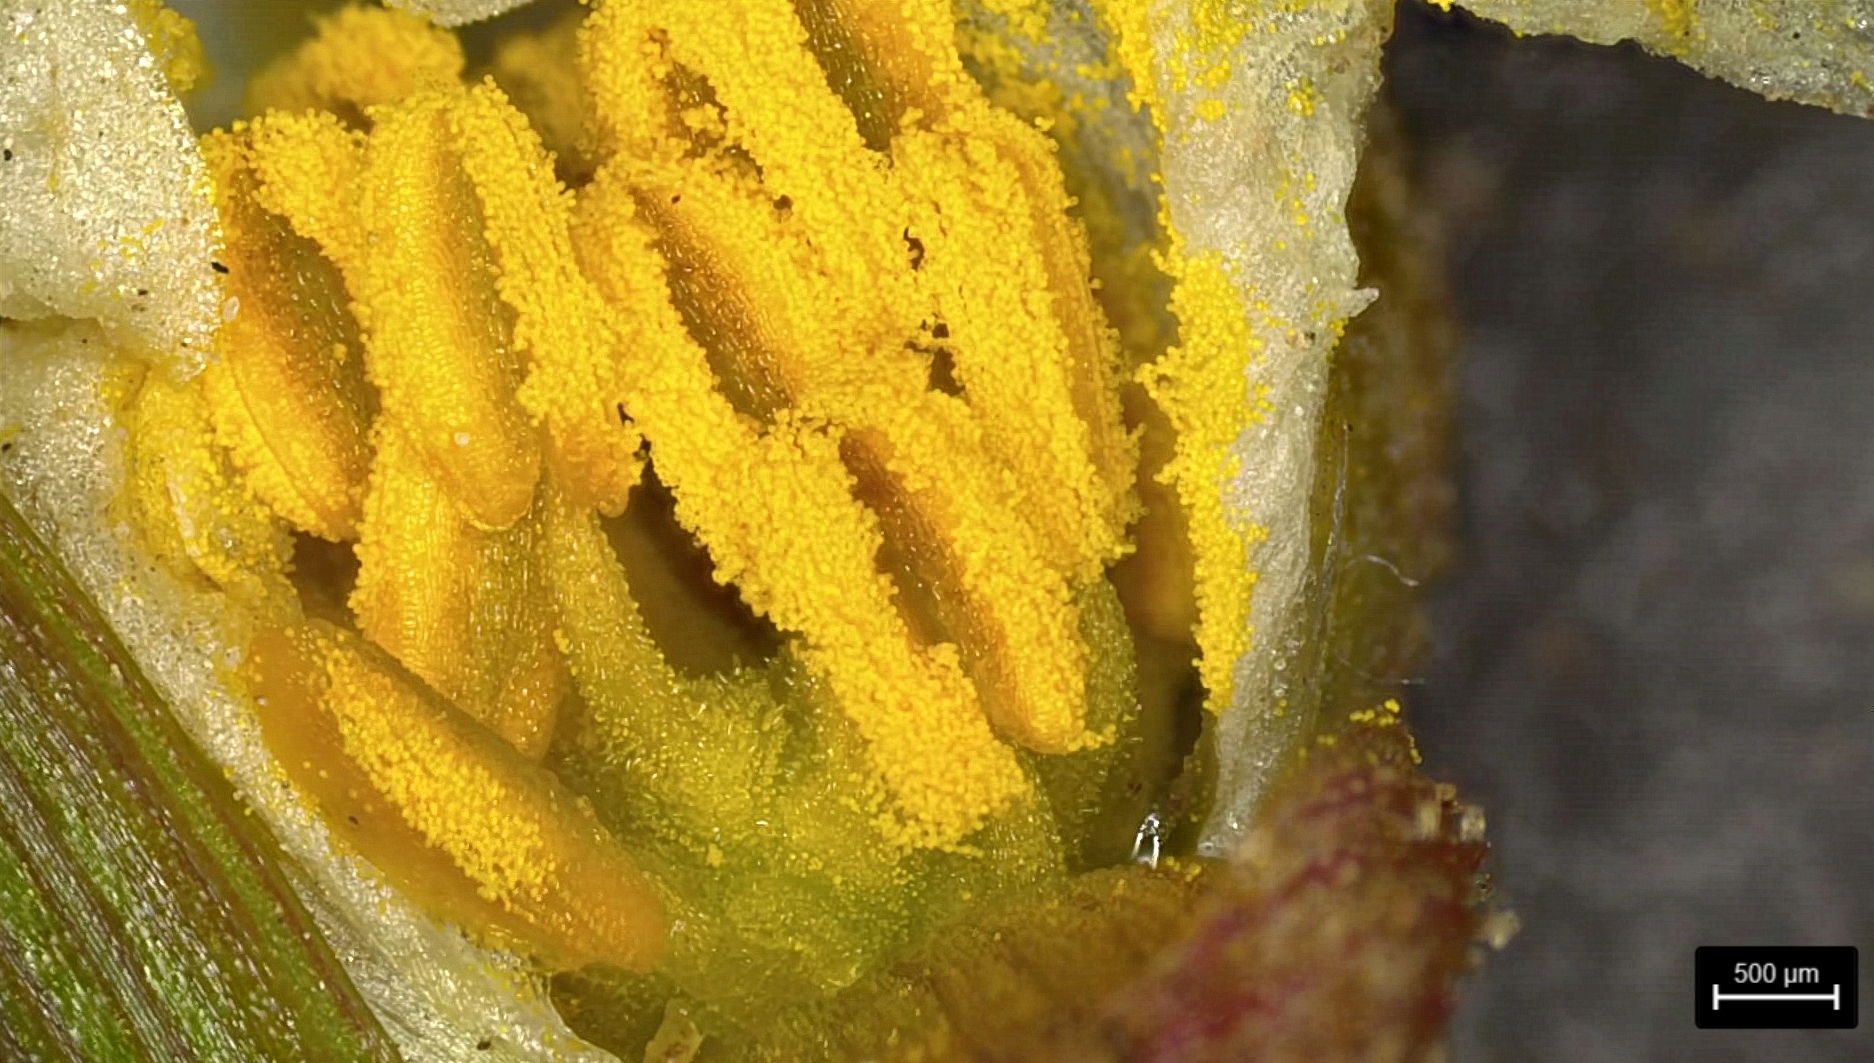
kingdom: Plantae
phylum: Tracheophyta
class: Liliopsida
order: Alismatales
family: Alismataceae
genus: Sagittaria
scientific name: Sagittaria papillosa
